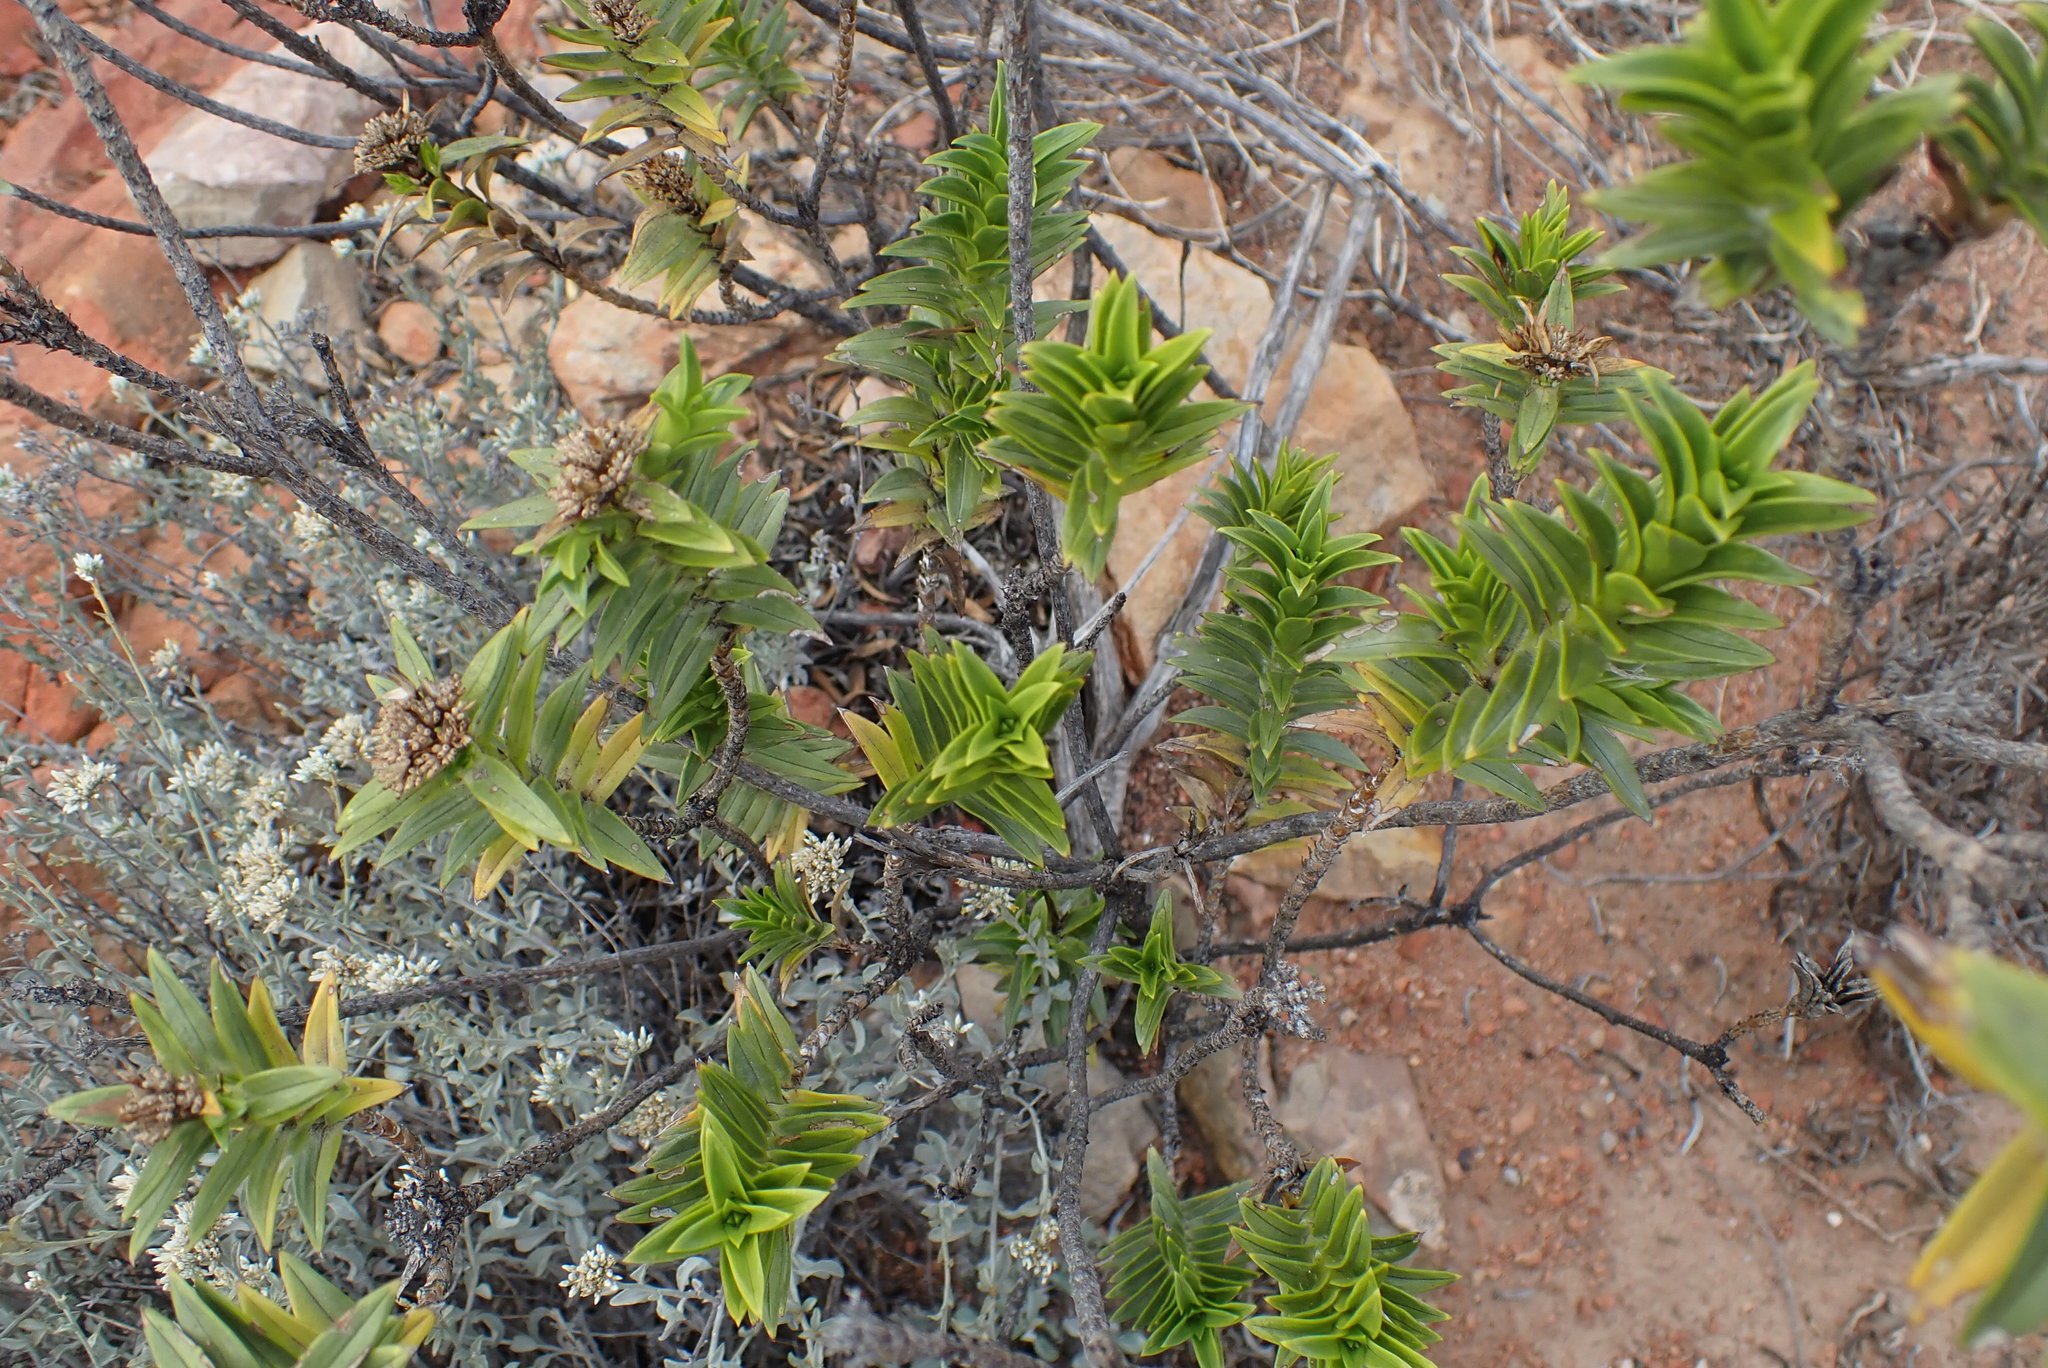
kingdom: Plantae
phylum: Tracheophyta
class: Magnoliopsida
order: Asterales
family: Asteraceae
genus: Pteronia
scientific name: Pteronia fasciculata
